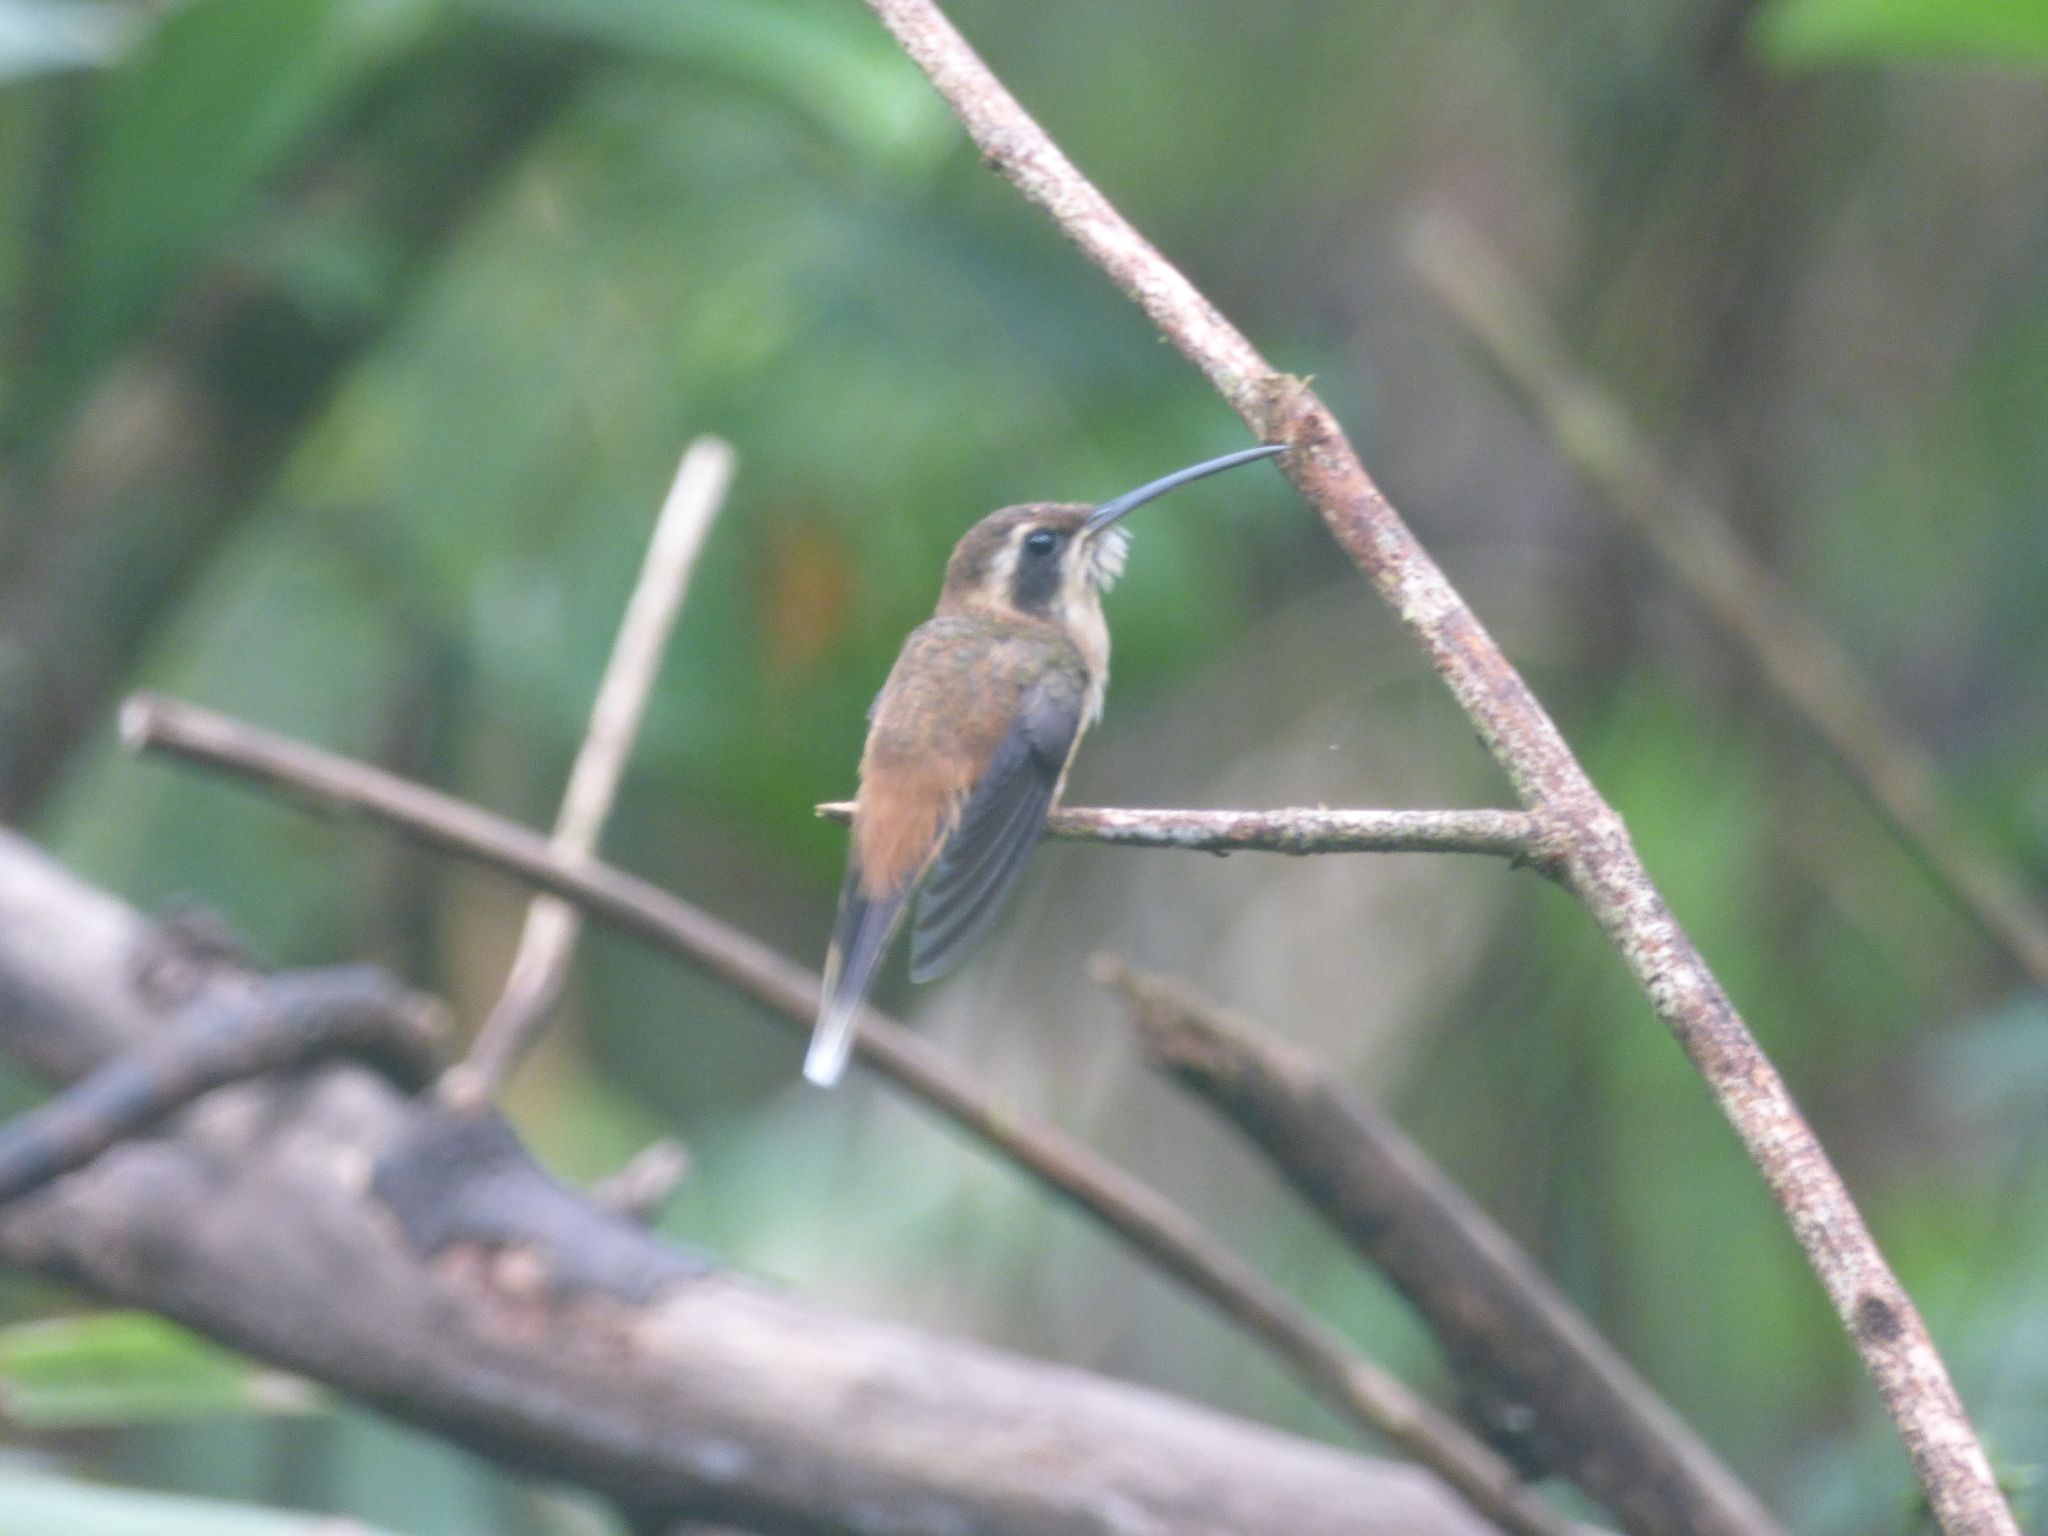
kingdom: Animalia
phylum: Chordata
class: Aves
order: Apodiformes
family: Trochilidae
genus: Phaethornis
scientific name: Phaethornis striigularis
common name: Stripe-throated hermit
